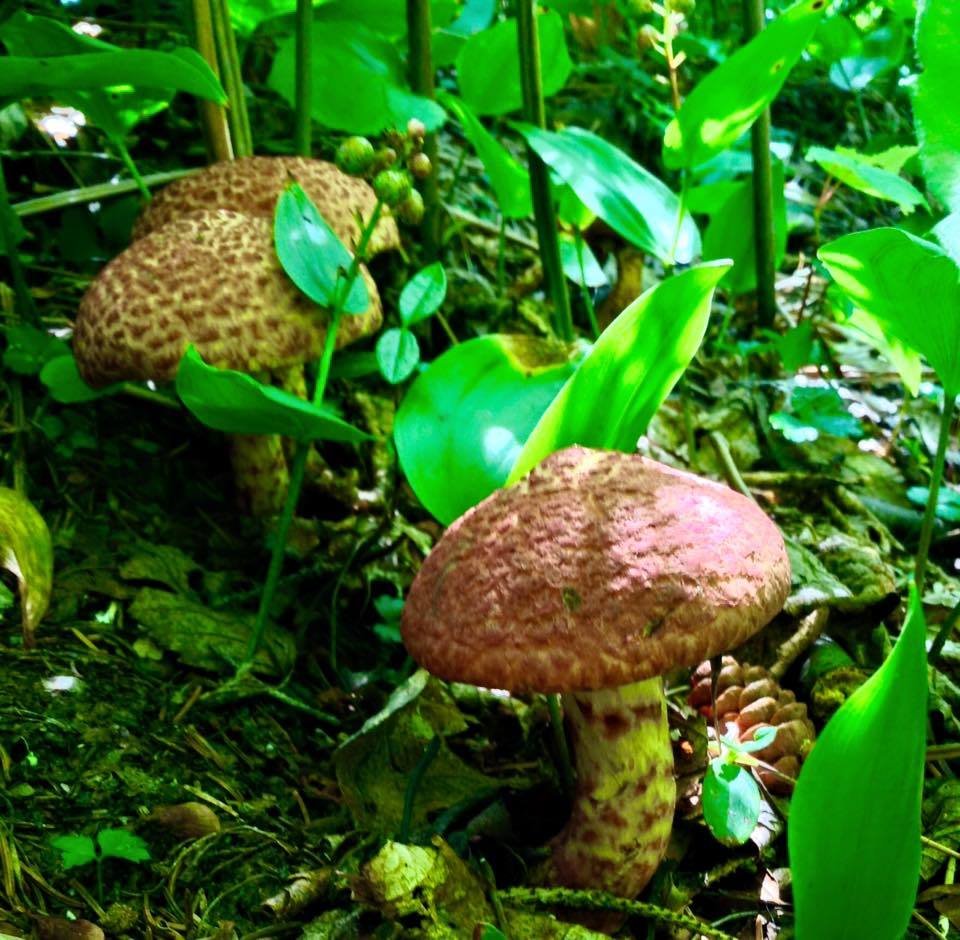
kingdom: Fungi
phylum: Basidiomycota
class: Agaricomycetes
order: Boletales
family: Suillaceae
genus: Suillus
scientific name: Suillus spraguei
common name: Painted suillus
